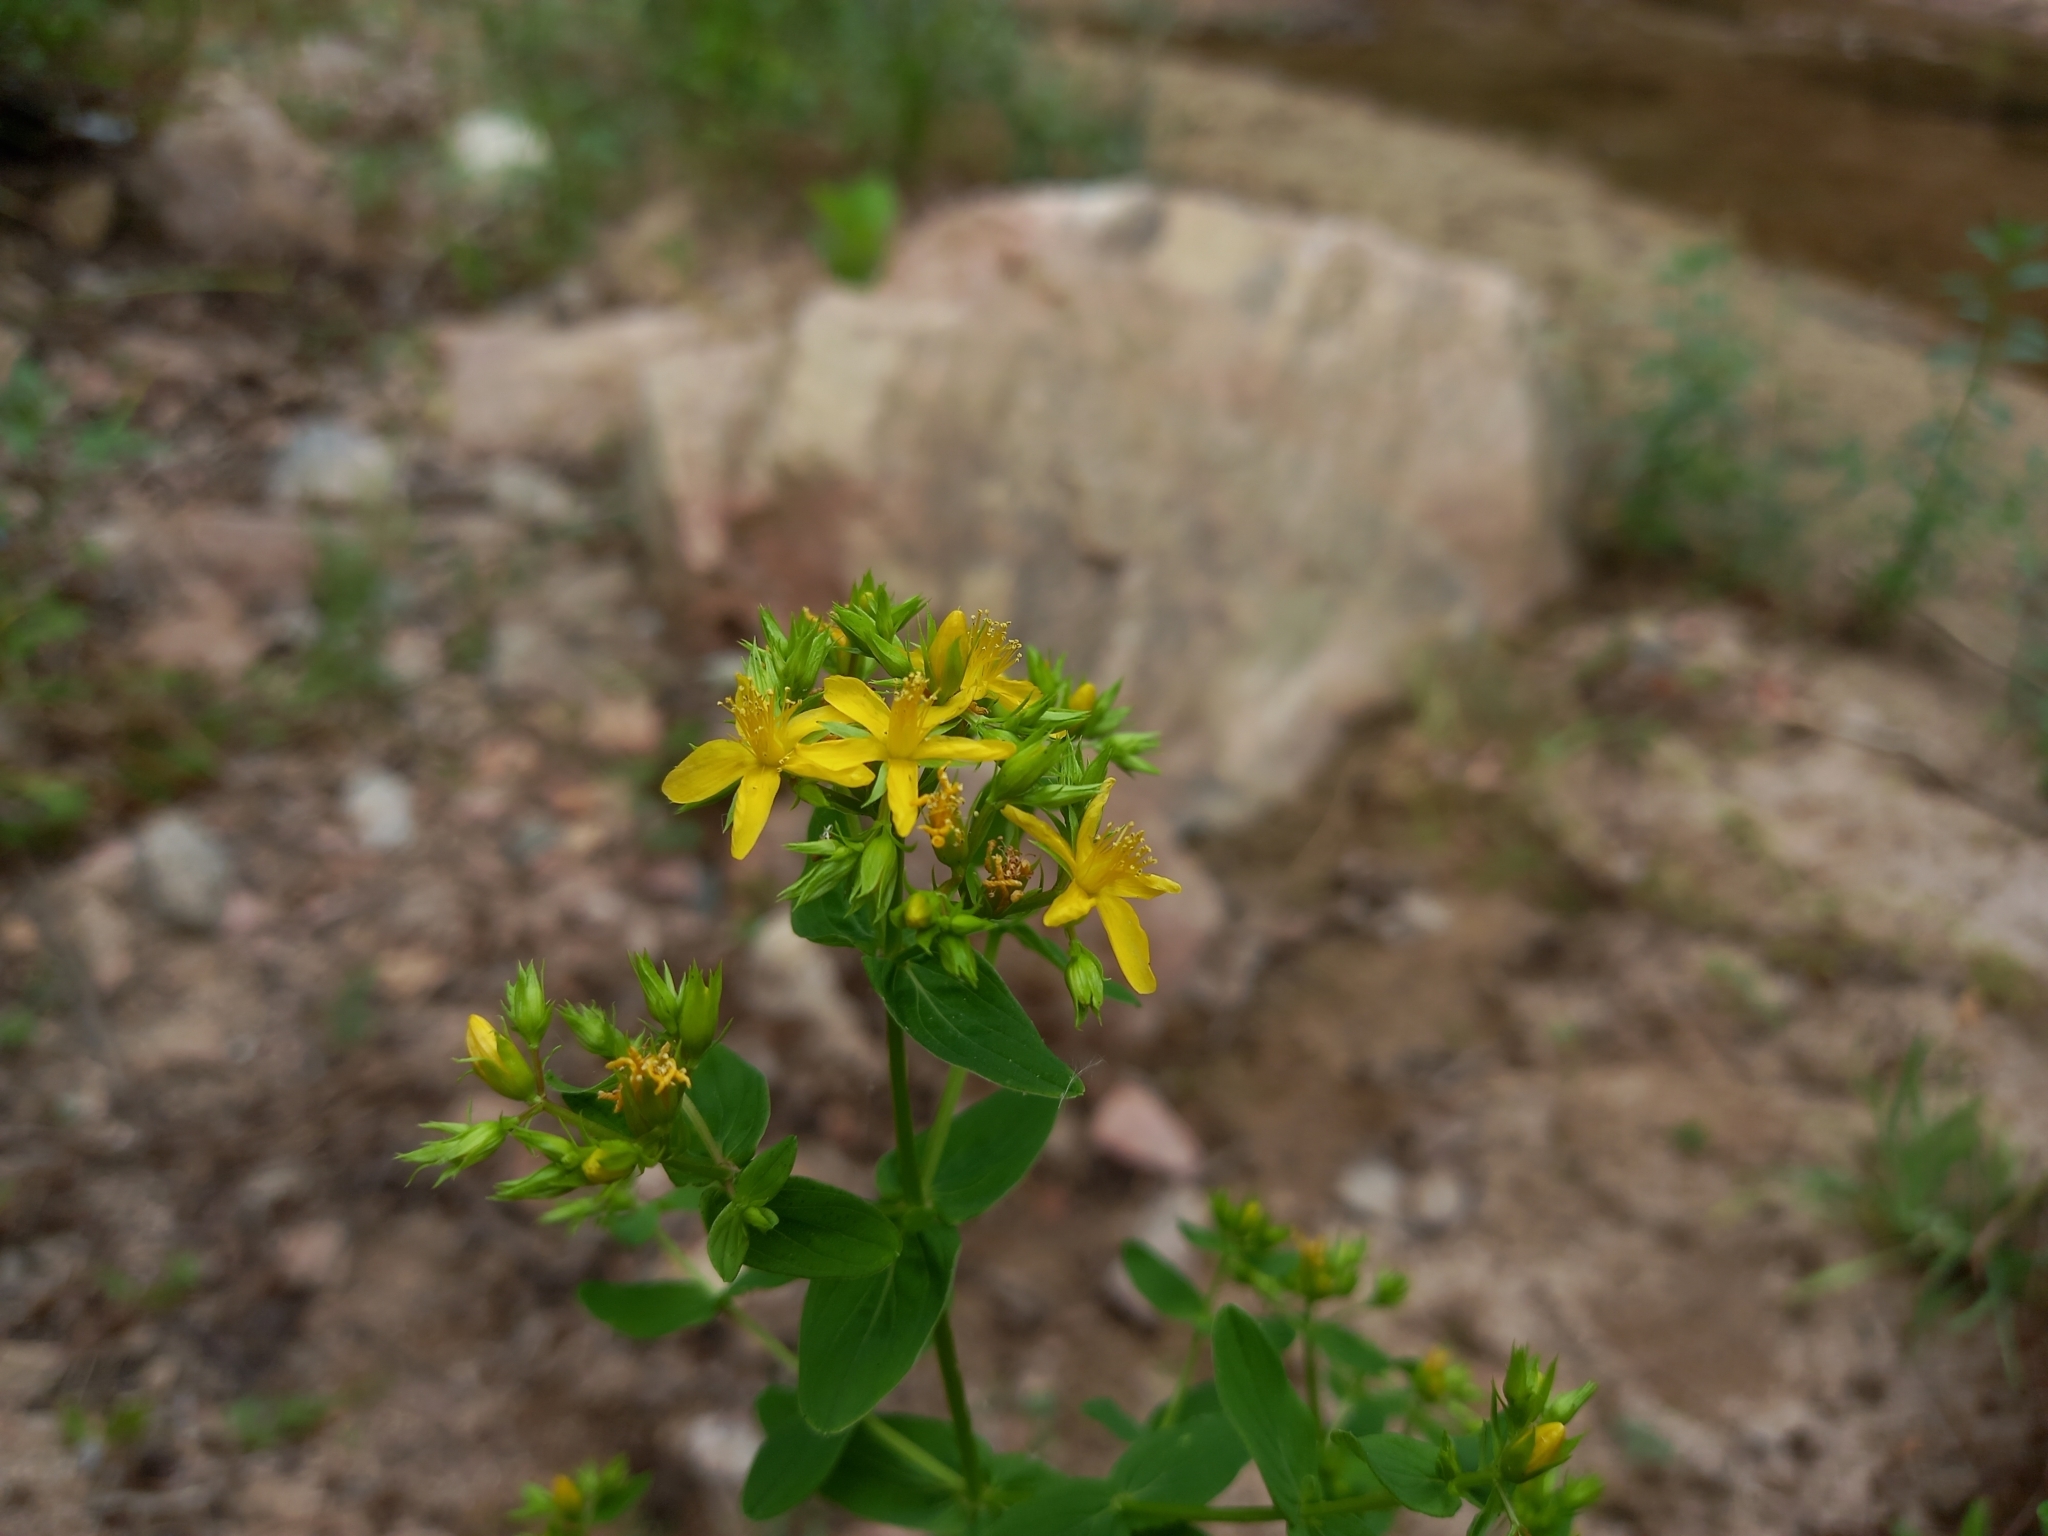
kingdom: Plantae
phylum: Tracheophyta
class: Magnoliopsida
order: Malpighiales
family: Hypericaceae
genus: Hypericum
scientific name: Hypericum tetrapterum
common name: Square-stalked st. john's-wort
